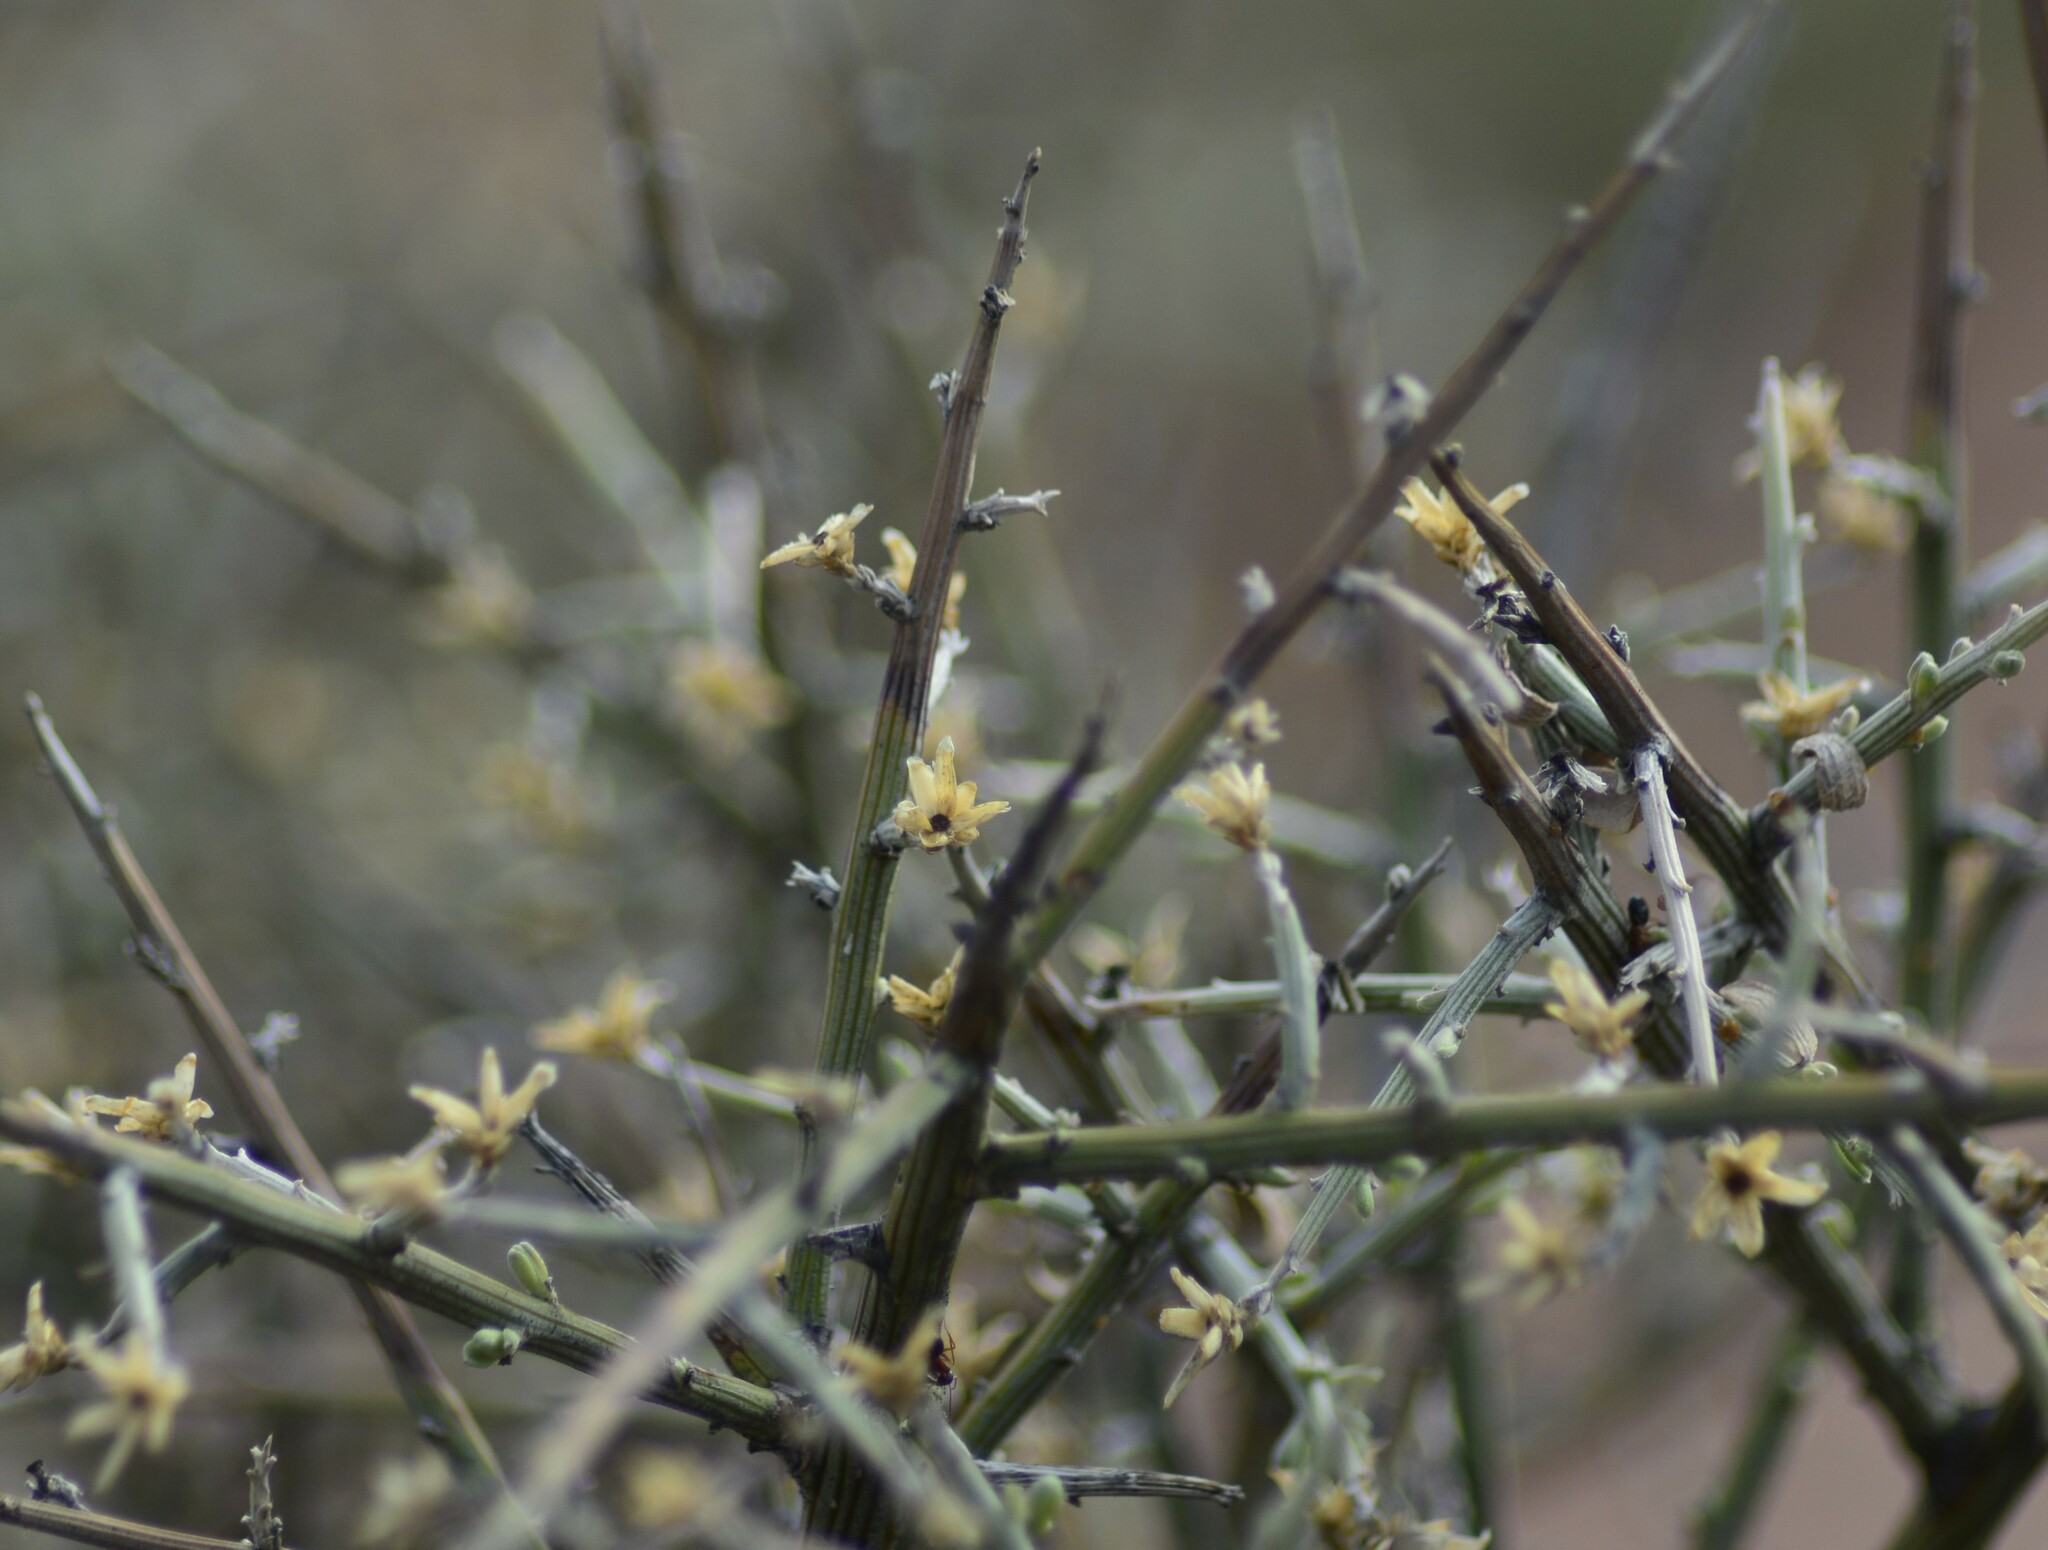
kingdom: Plantae
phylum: Tracheophyta
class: Magnoliopsida
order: Asterales
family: Asteraceae
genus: Cyclolepis
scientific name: Cyclolepis genistoides
